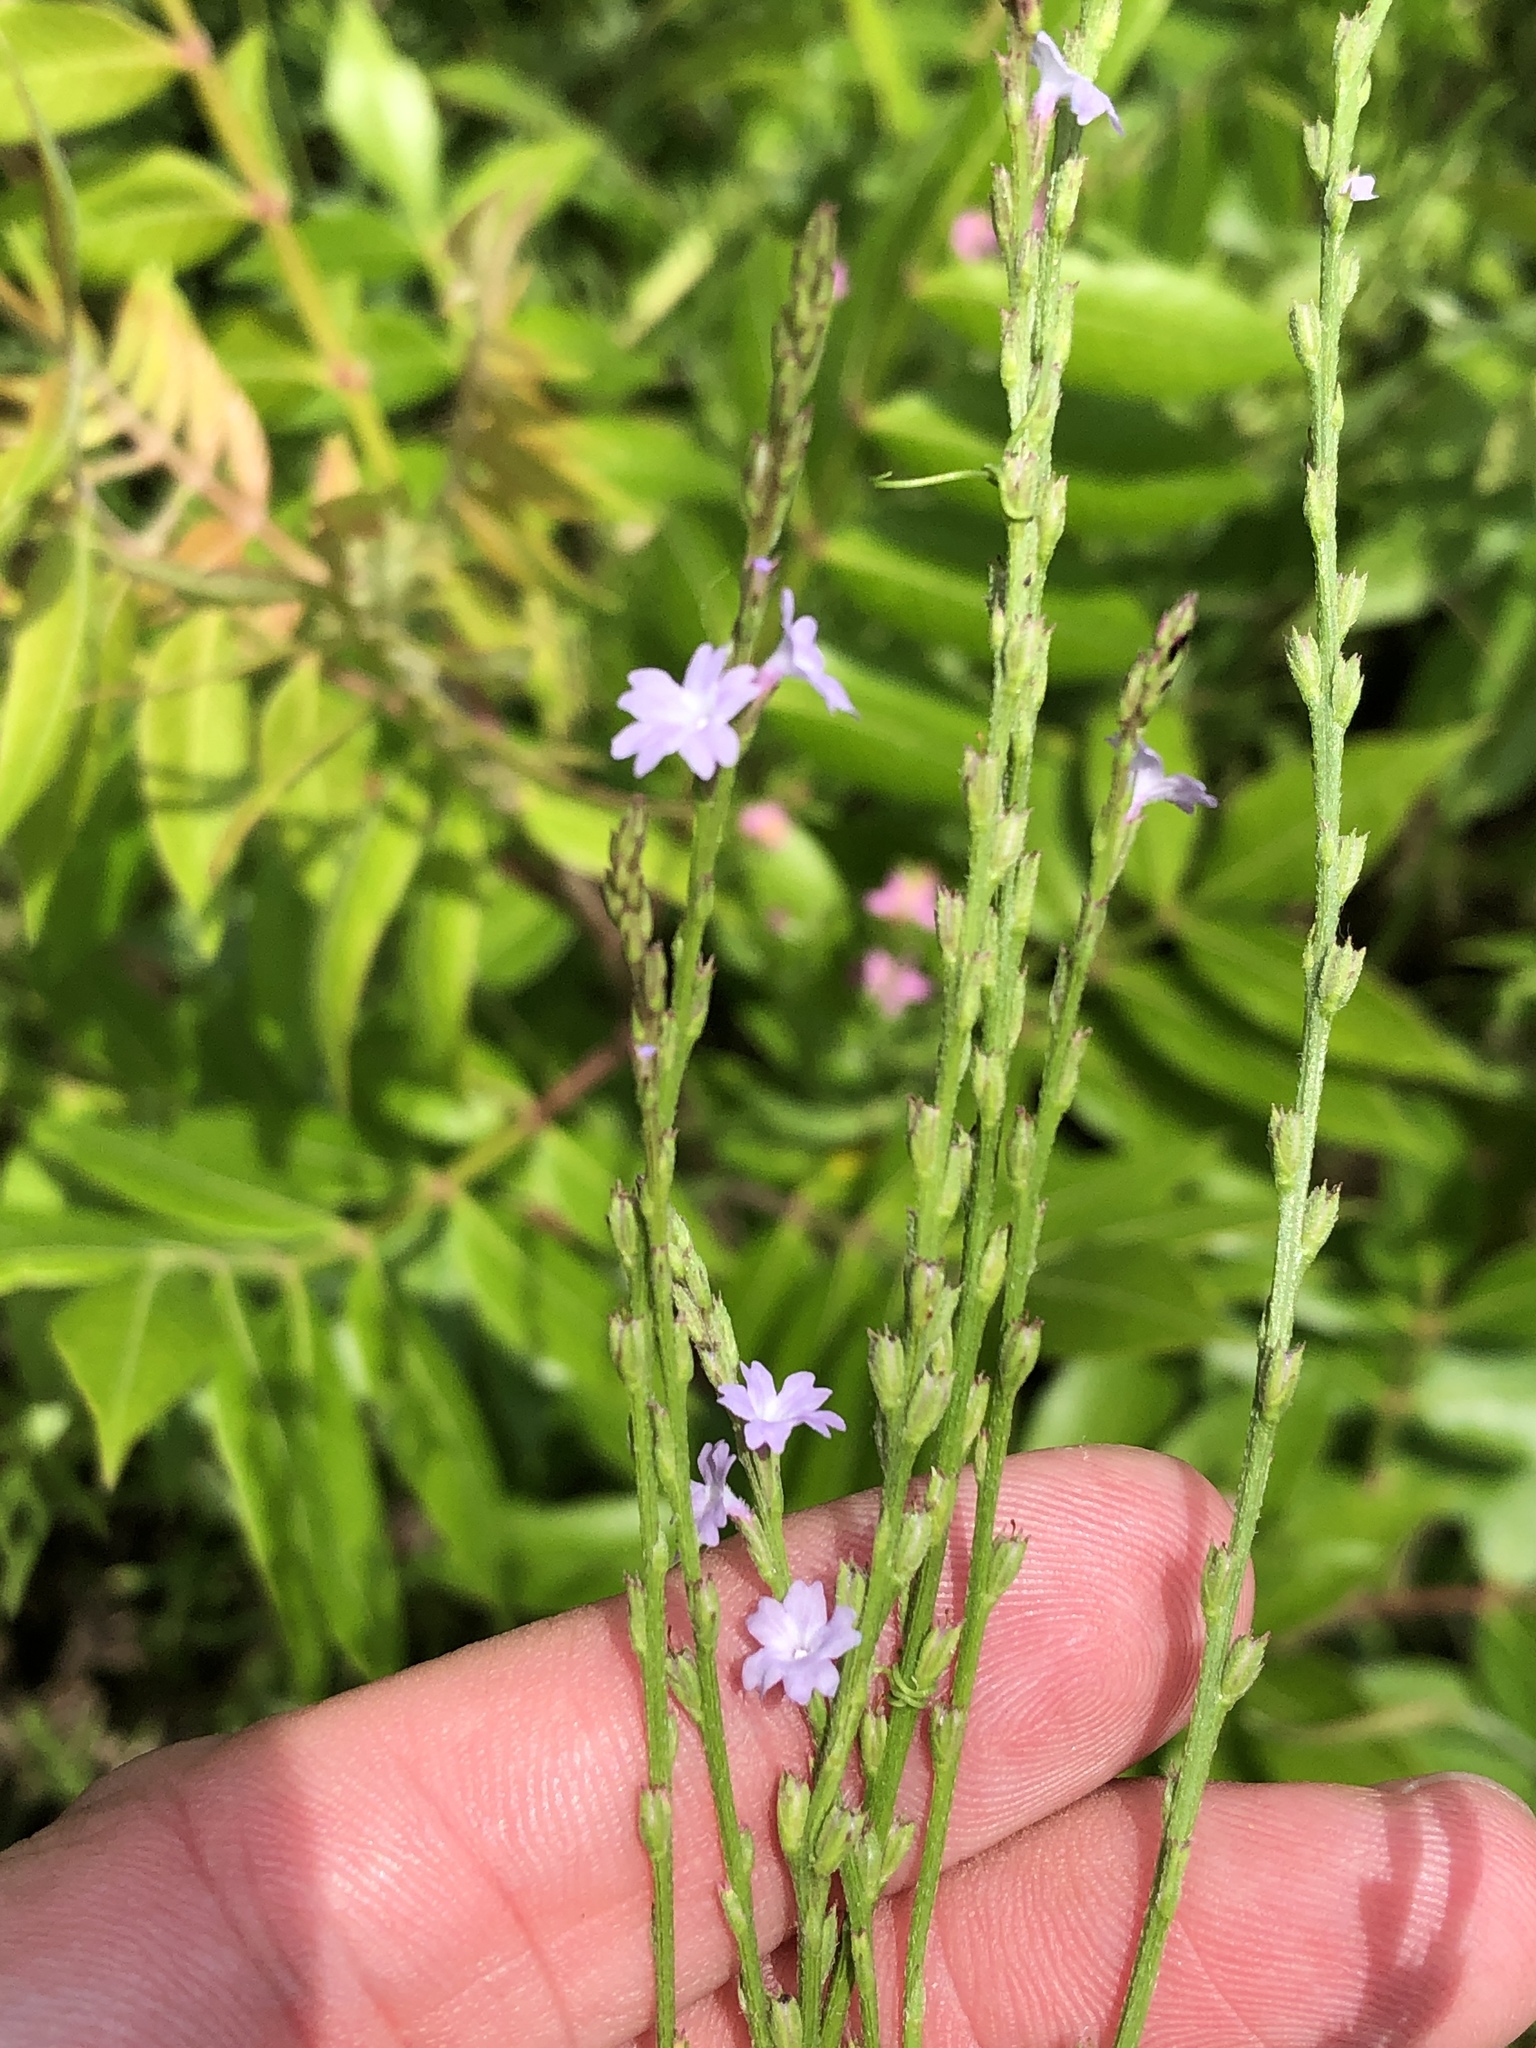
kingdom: Plantae
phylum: Tracheophyta
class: Magnoliopsida
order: Lamiales
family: Verbenaceae
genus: Verbena
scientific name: Verbena halei
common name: Texas vervain
